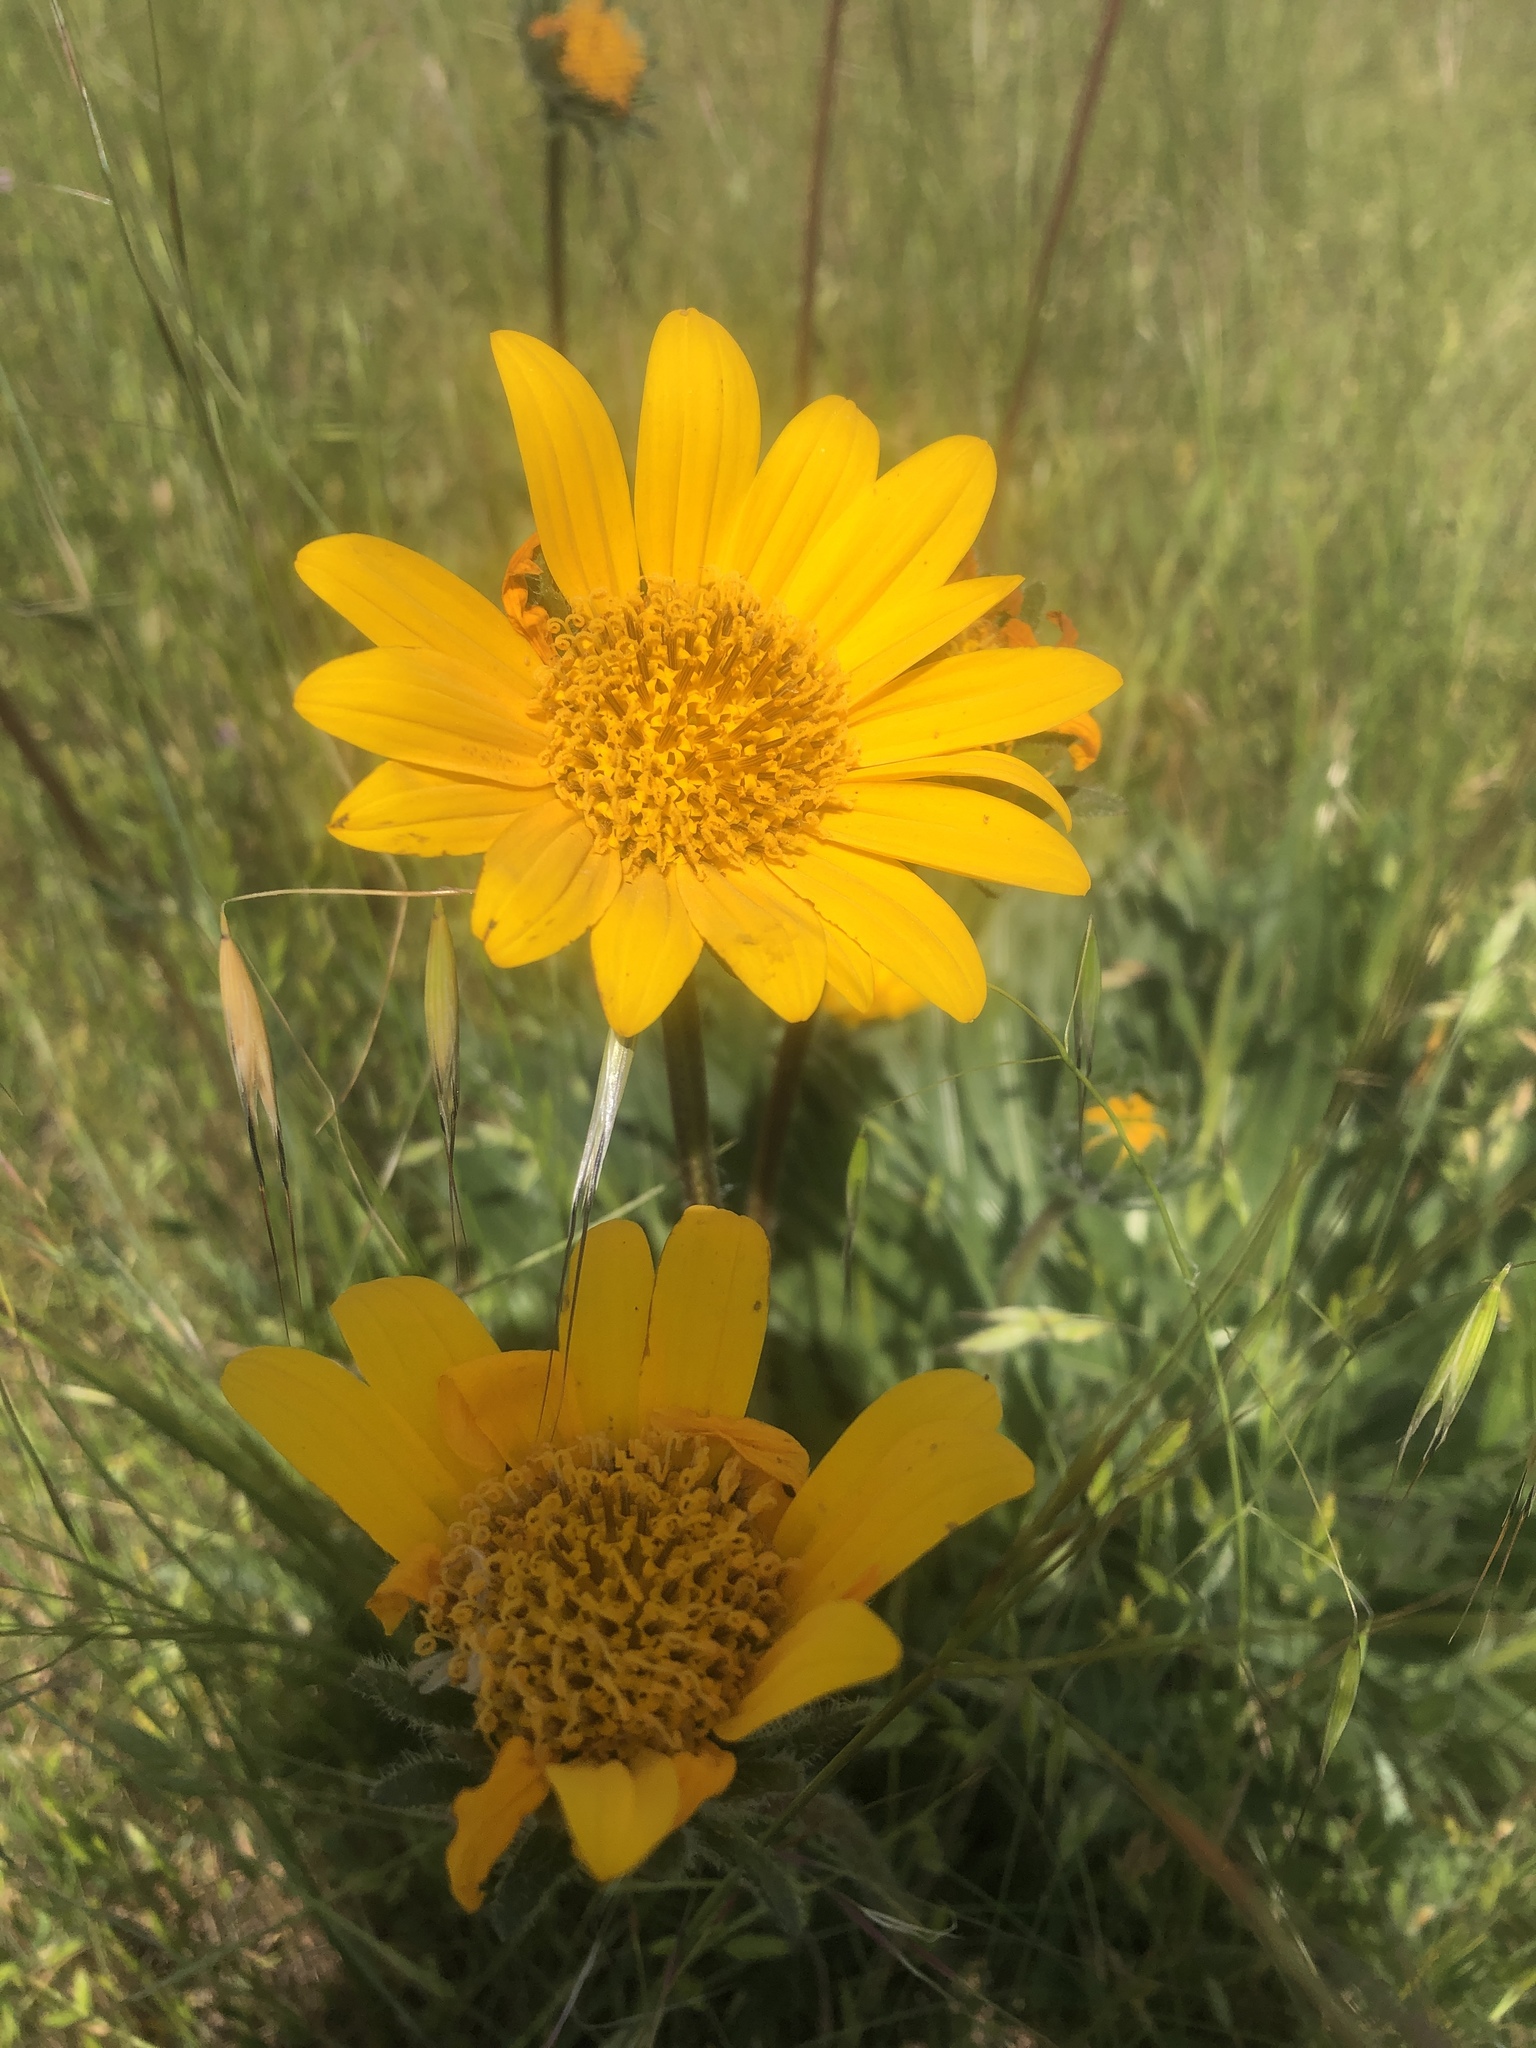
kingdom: Plantae
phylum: Tracheophyta
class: Magnoliopsida
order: Asterales
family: Asteraceae
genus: Wyethia
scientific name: Wyethia angustifolia
